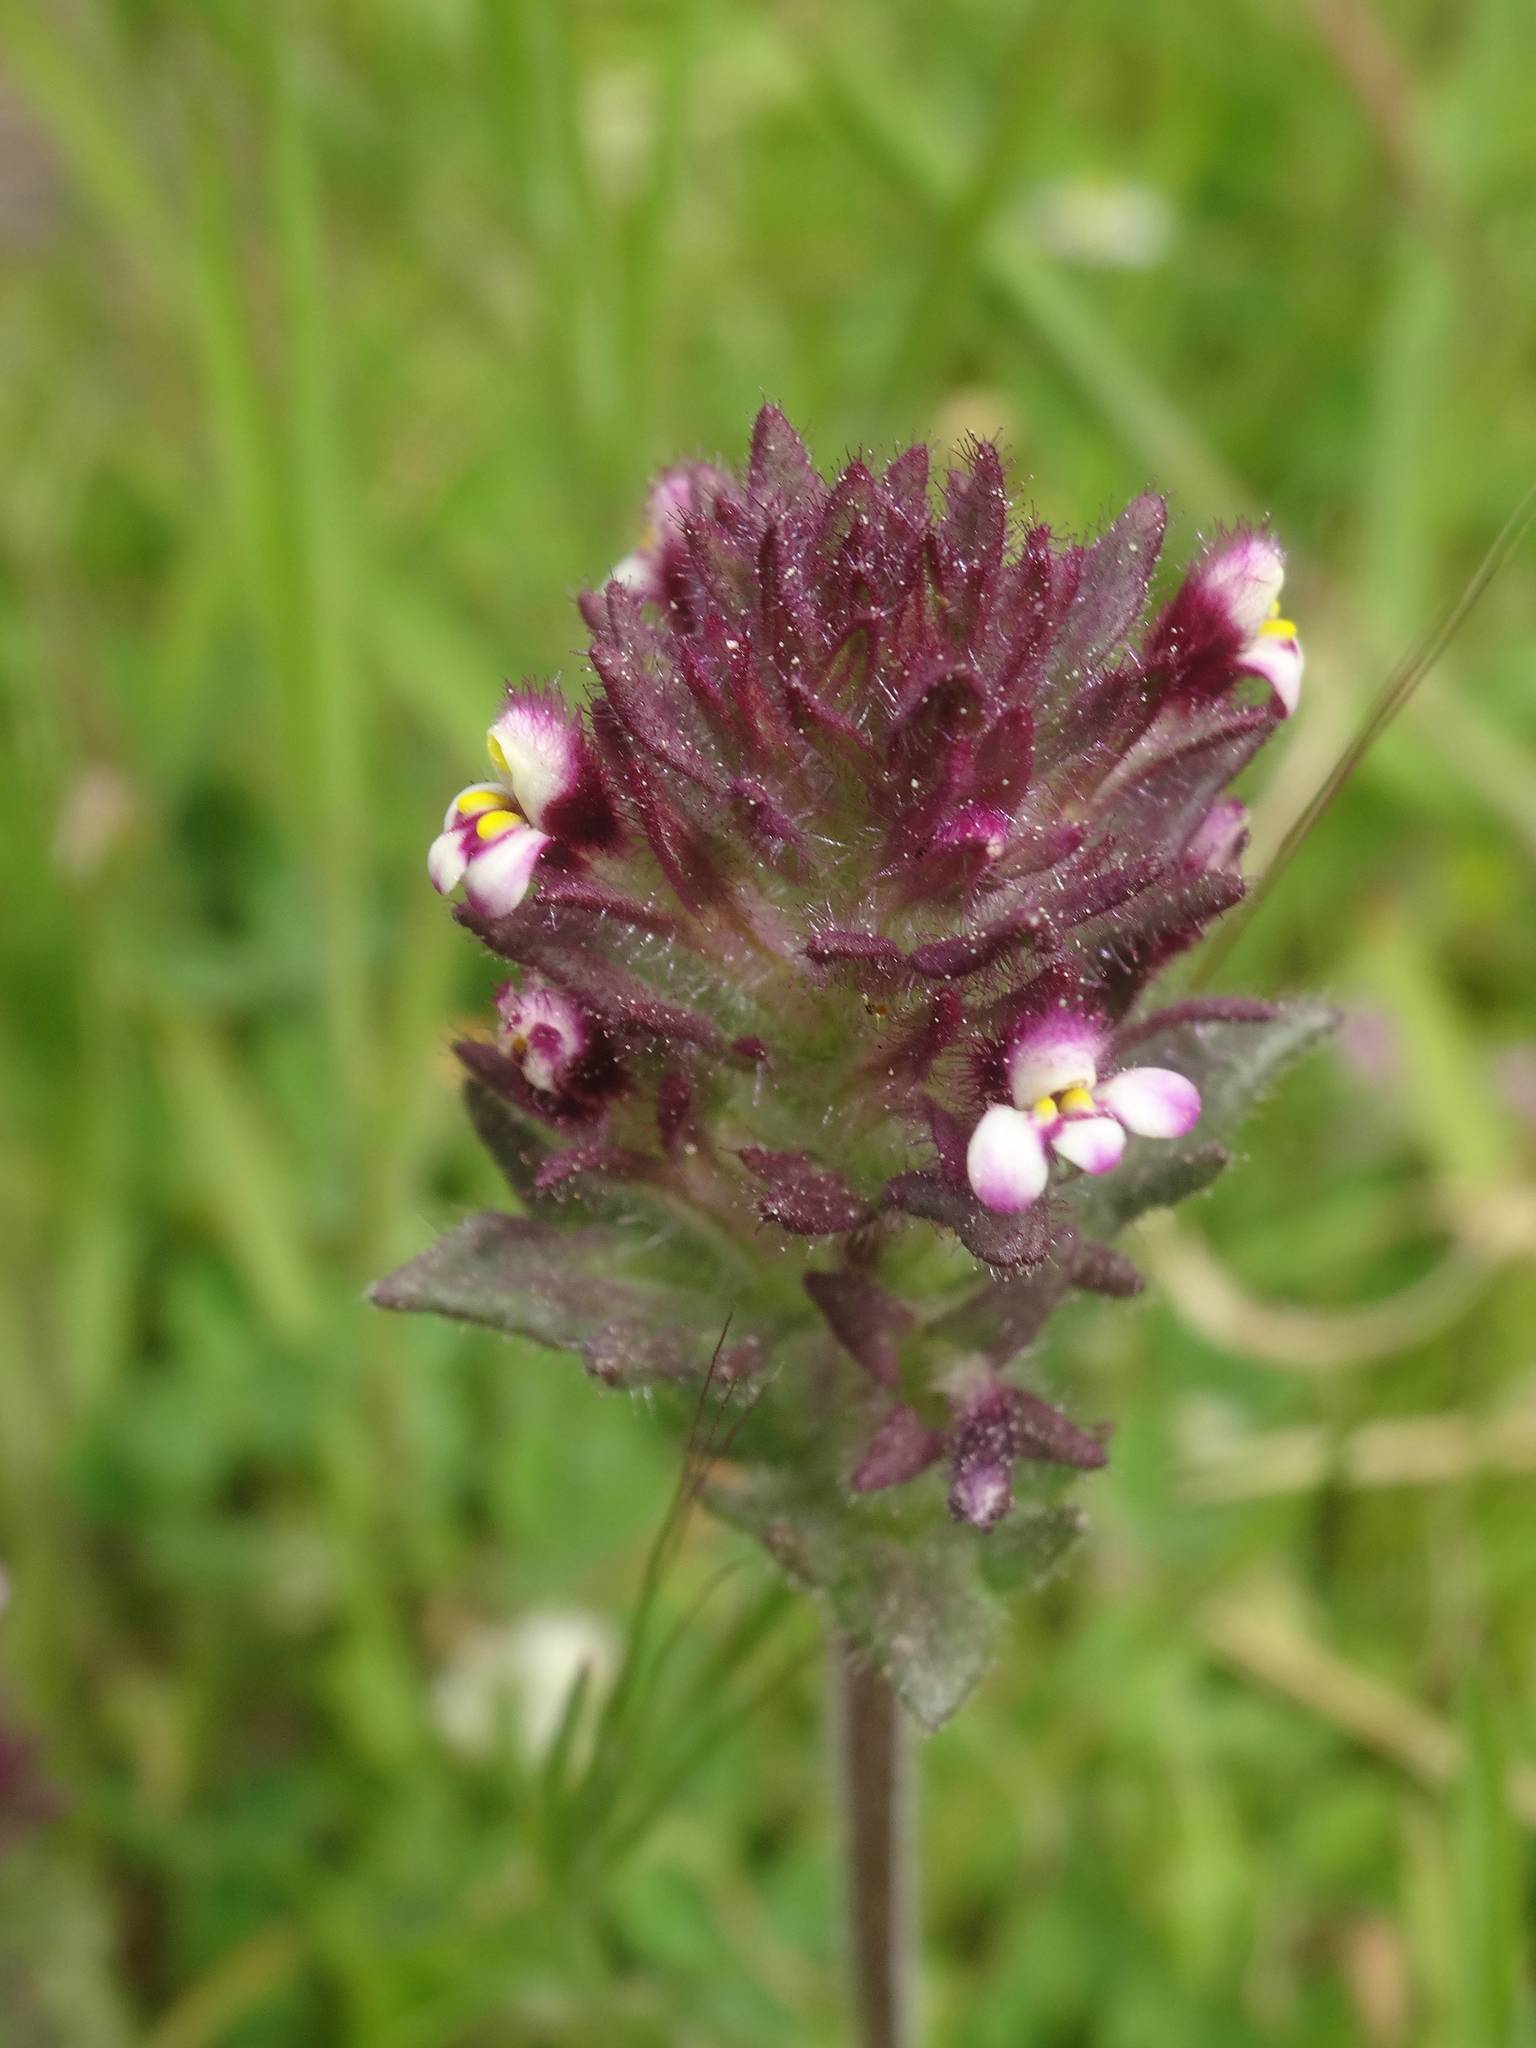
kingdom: Plantae
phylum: Tracheophyta
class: Magnoliopsida
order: Lamiales
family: Orobanchaceae
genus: Parentucellia
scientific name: Parentucellia latifolia
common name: Broadleaf glandweed
